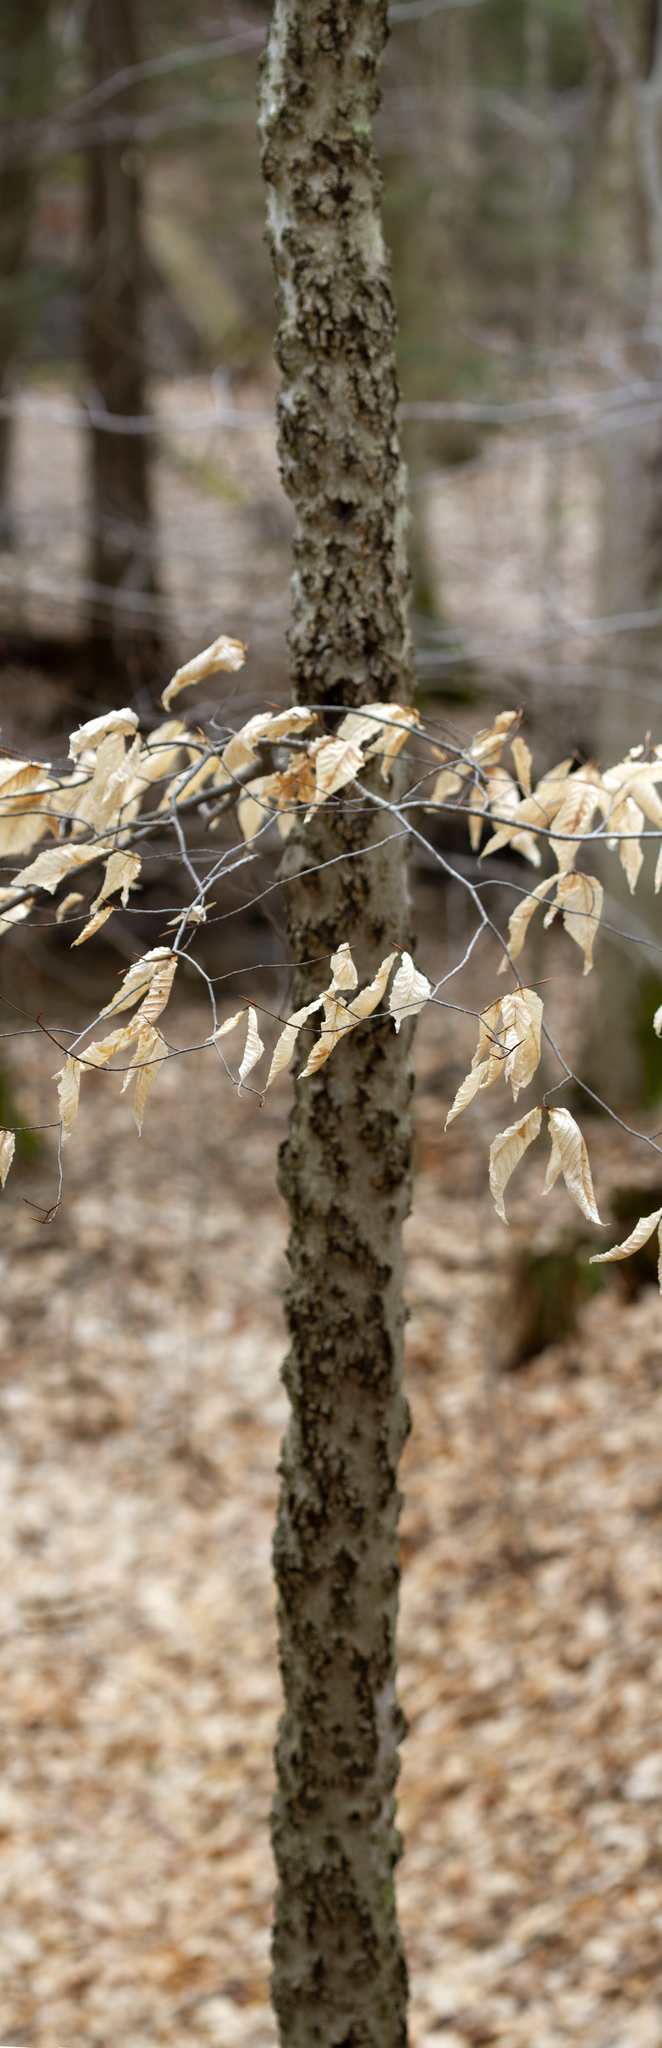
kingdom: Plantae
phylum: Tracheophyta
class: Magnoliopsida
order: Fagales
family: Fagaceae
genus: Fagus
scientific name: Fagus grandifolia
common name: American beech
